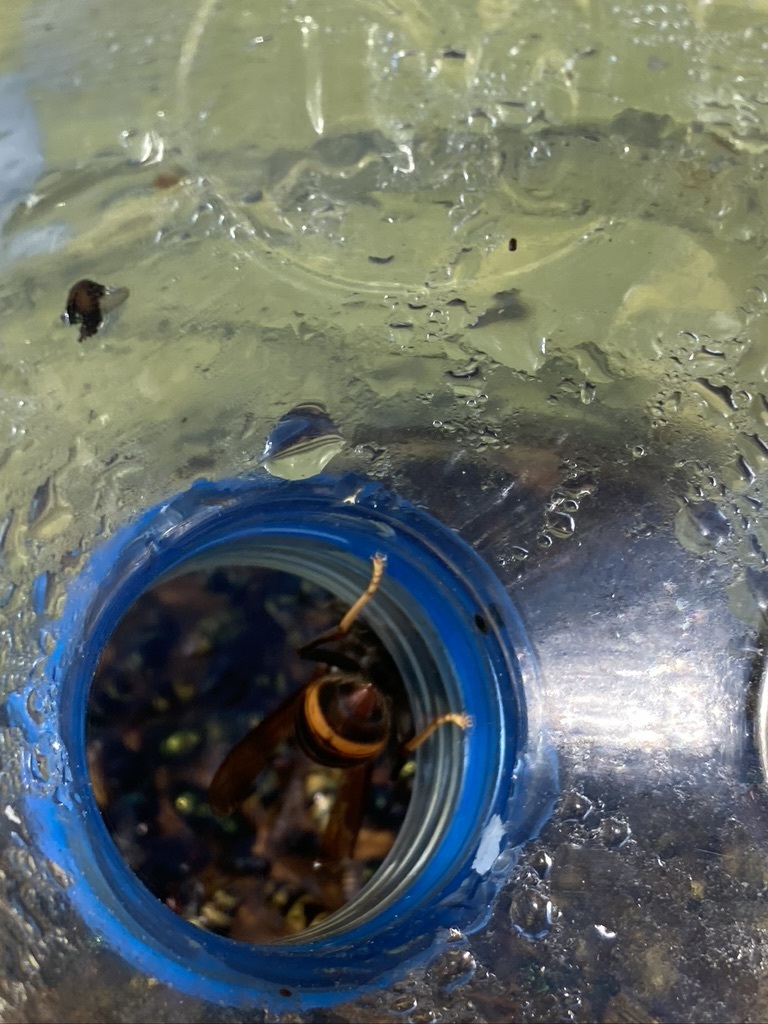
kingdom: Animalia
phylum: Arthropoda
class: Insecta
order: Hymenoptera
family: Vespidae
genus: Vespa
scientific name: Vespa velutina
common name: Asian hornet
